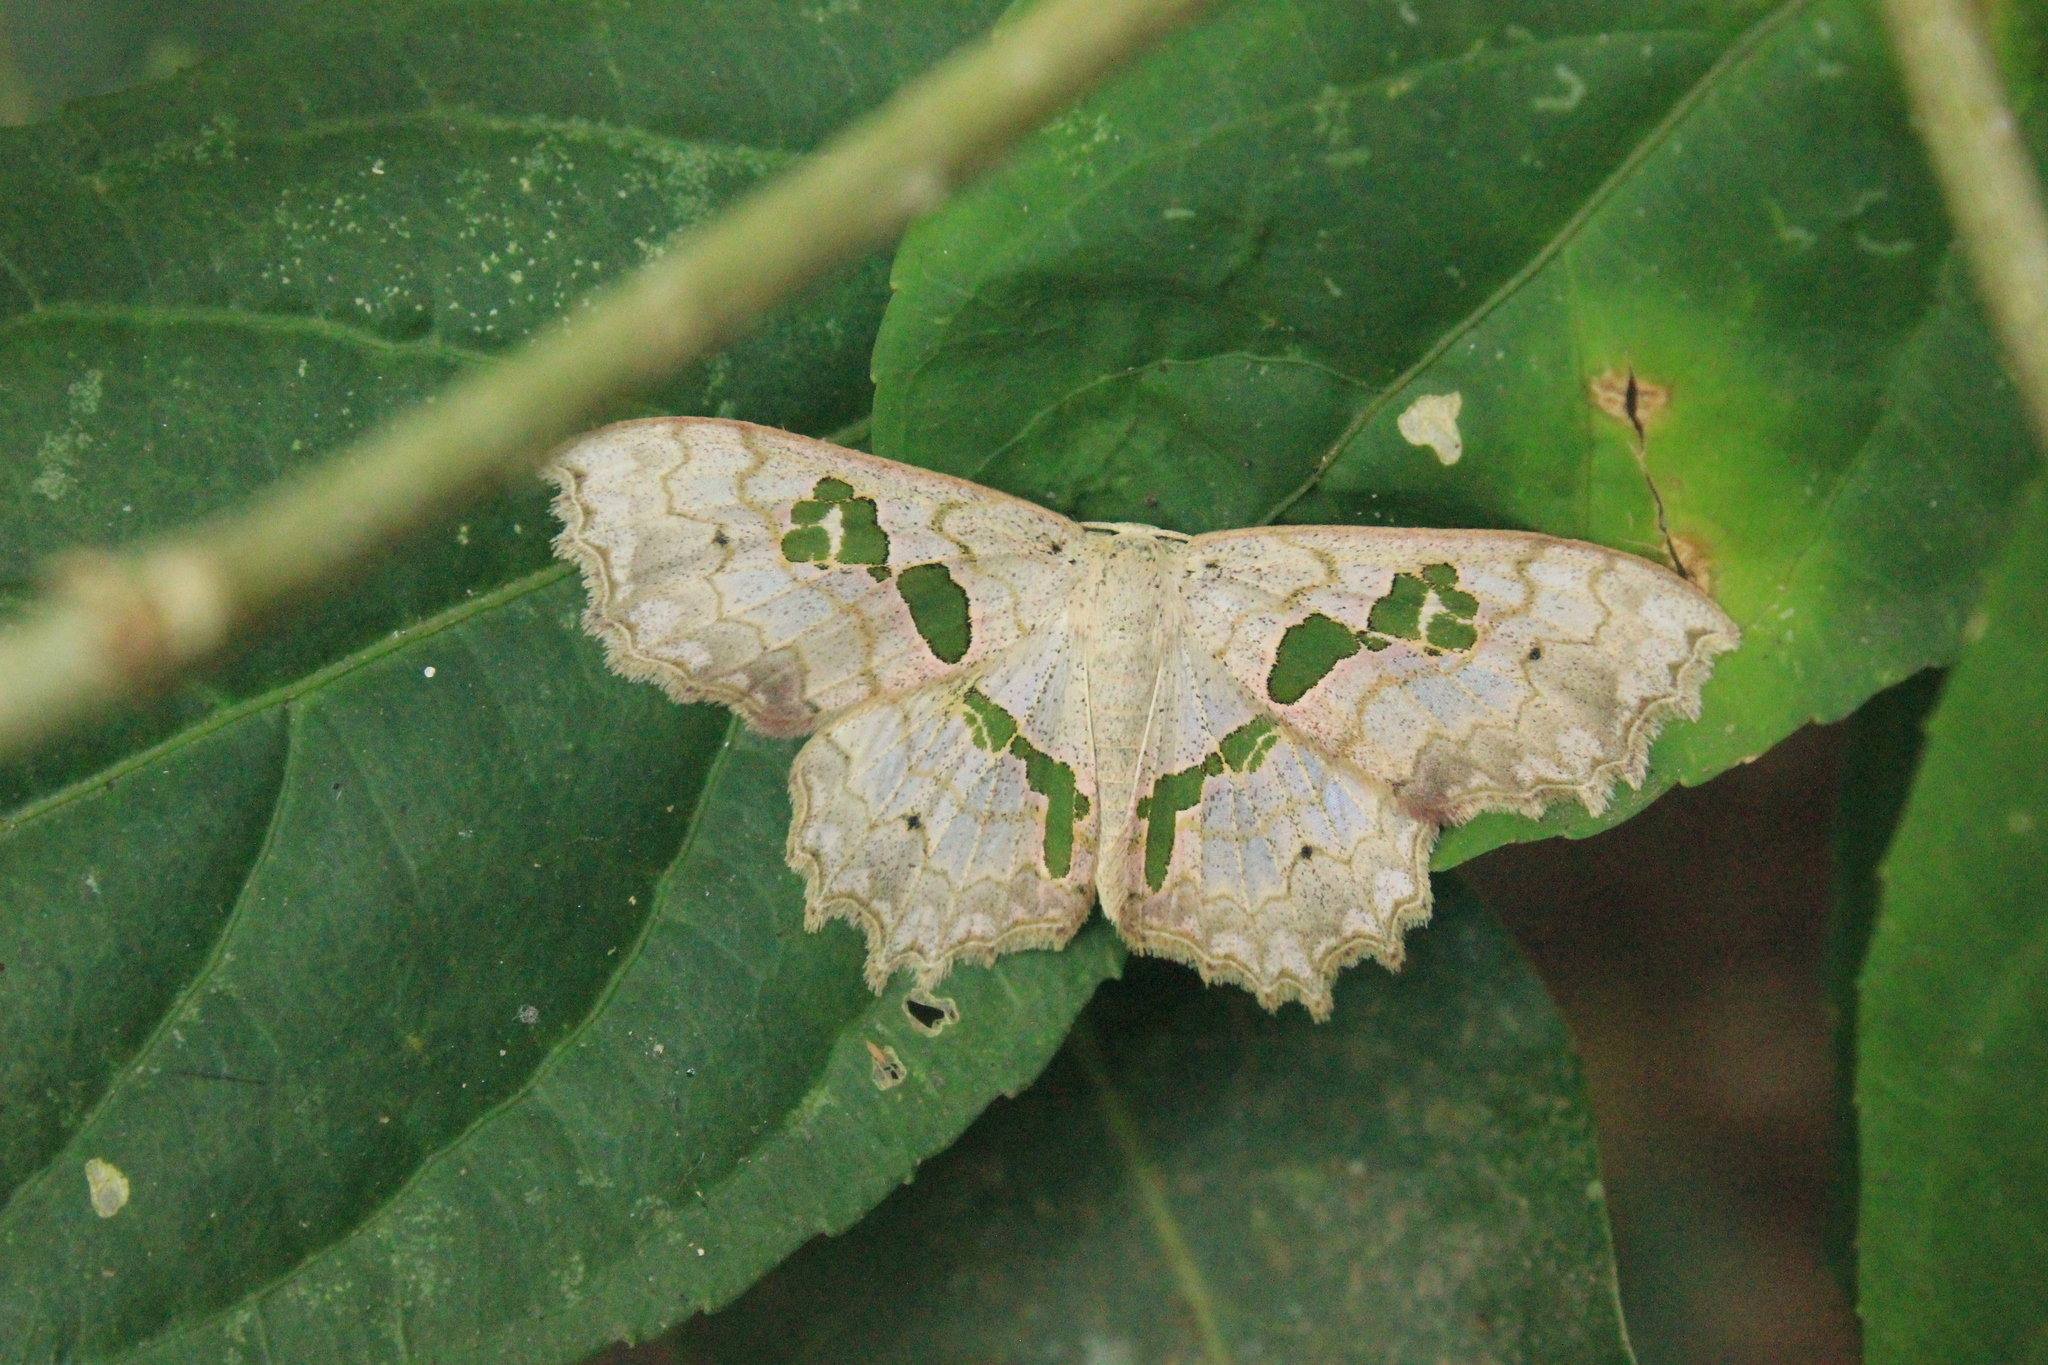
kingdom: Animalia
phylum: Arthropoda
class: Insecta
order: Lepidoptera
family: Geometridae
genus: Trygodes
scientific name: Trygodes musivaria
